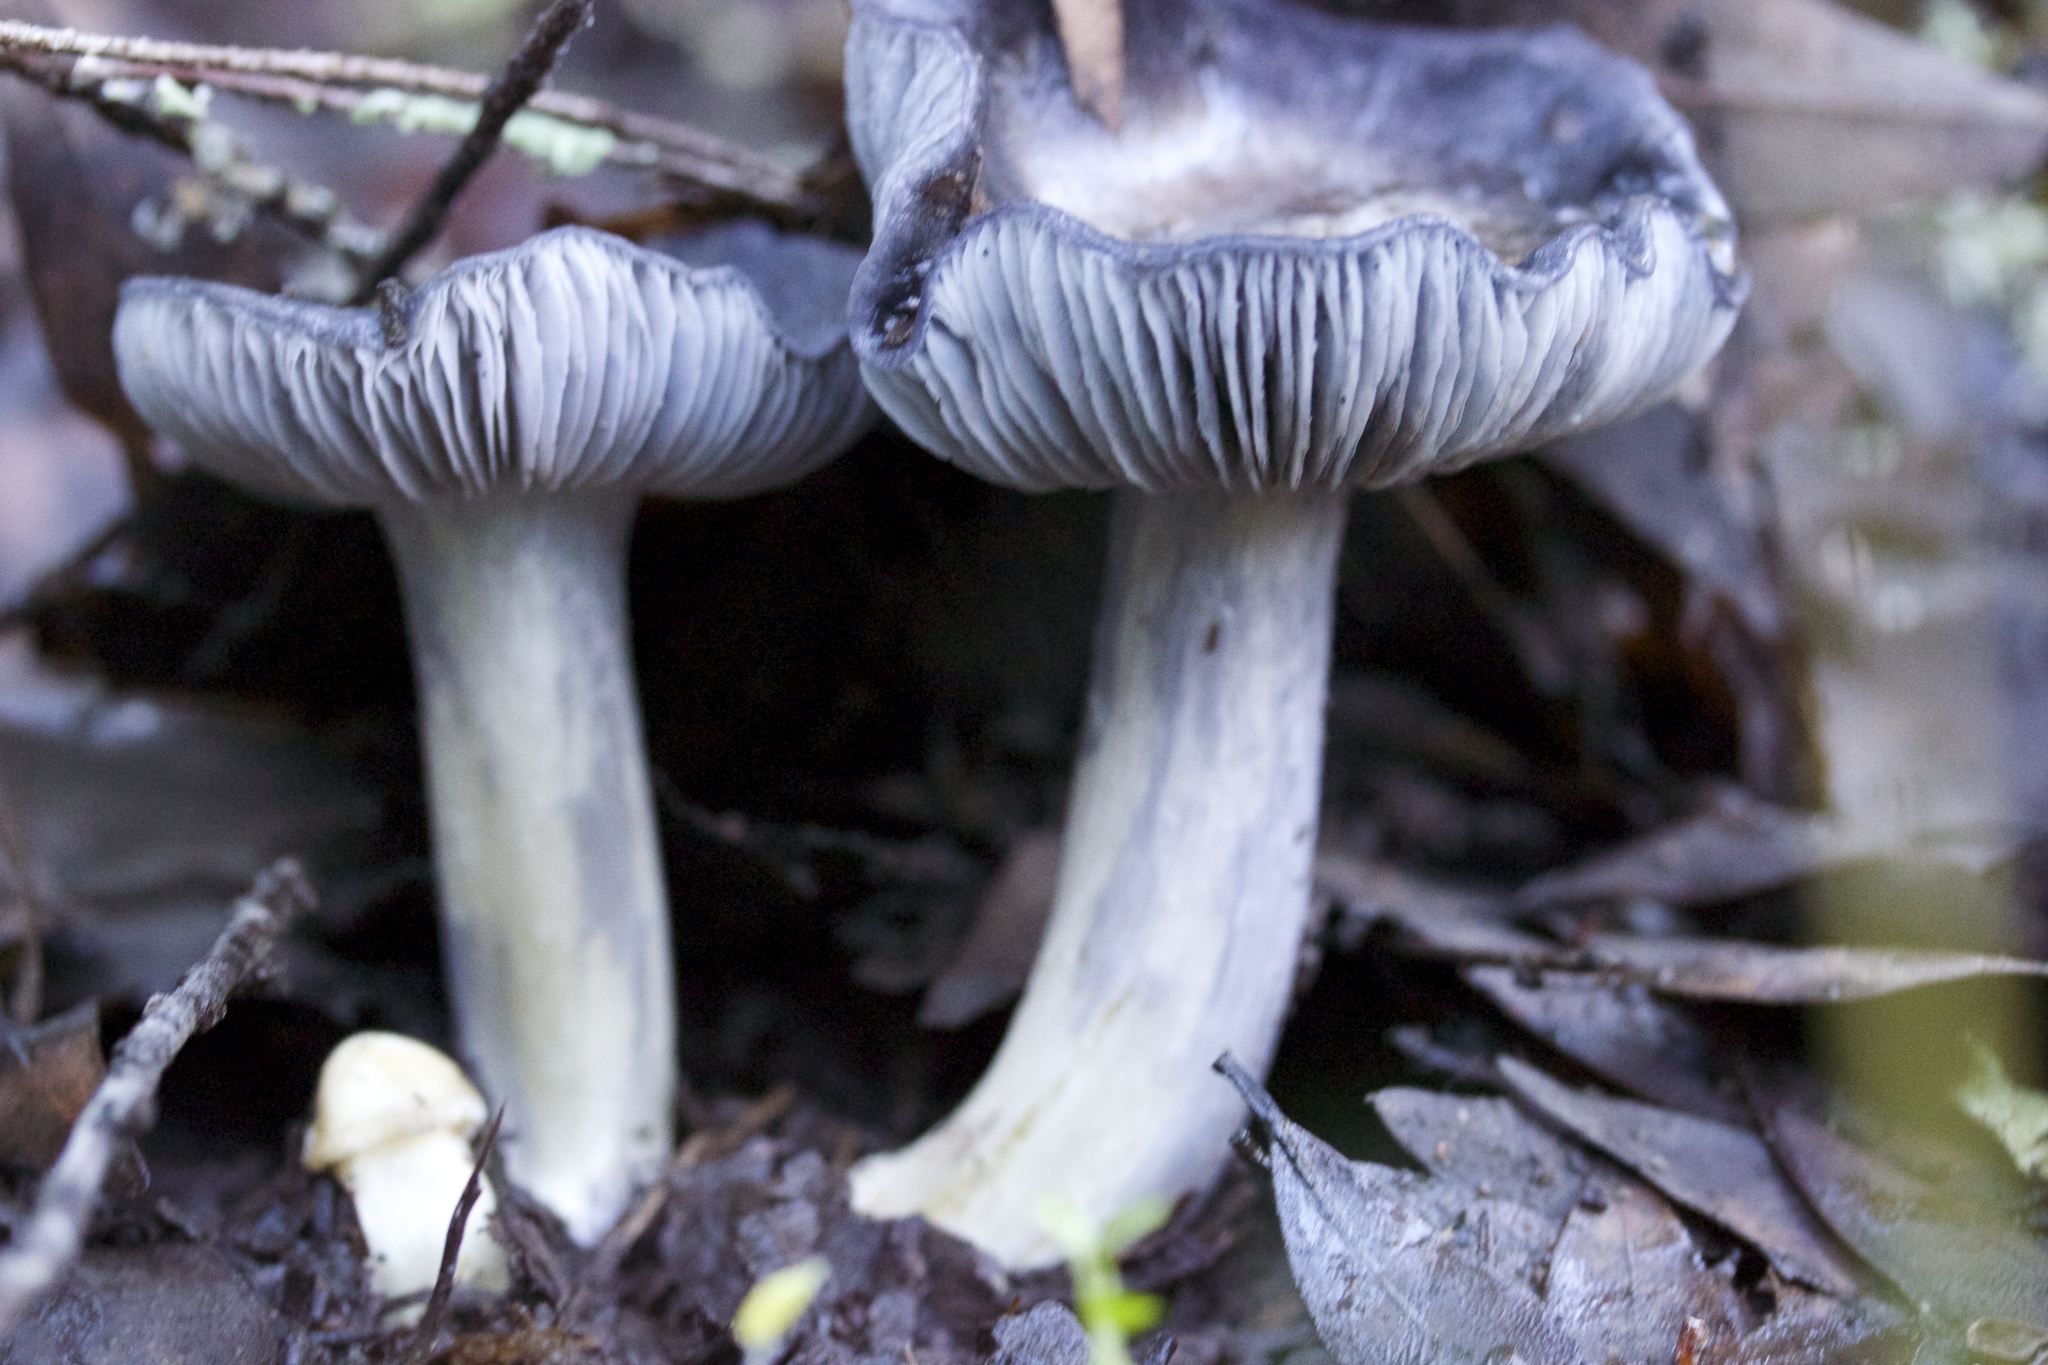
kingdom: Fungi
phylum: Basidiomycota
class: Agaricomycetes
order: Agaricales
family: Entolomataceae
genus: Entoloma
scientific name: Entoloma medianox
